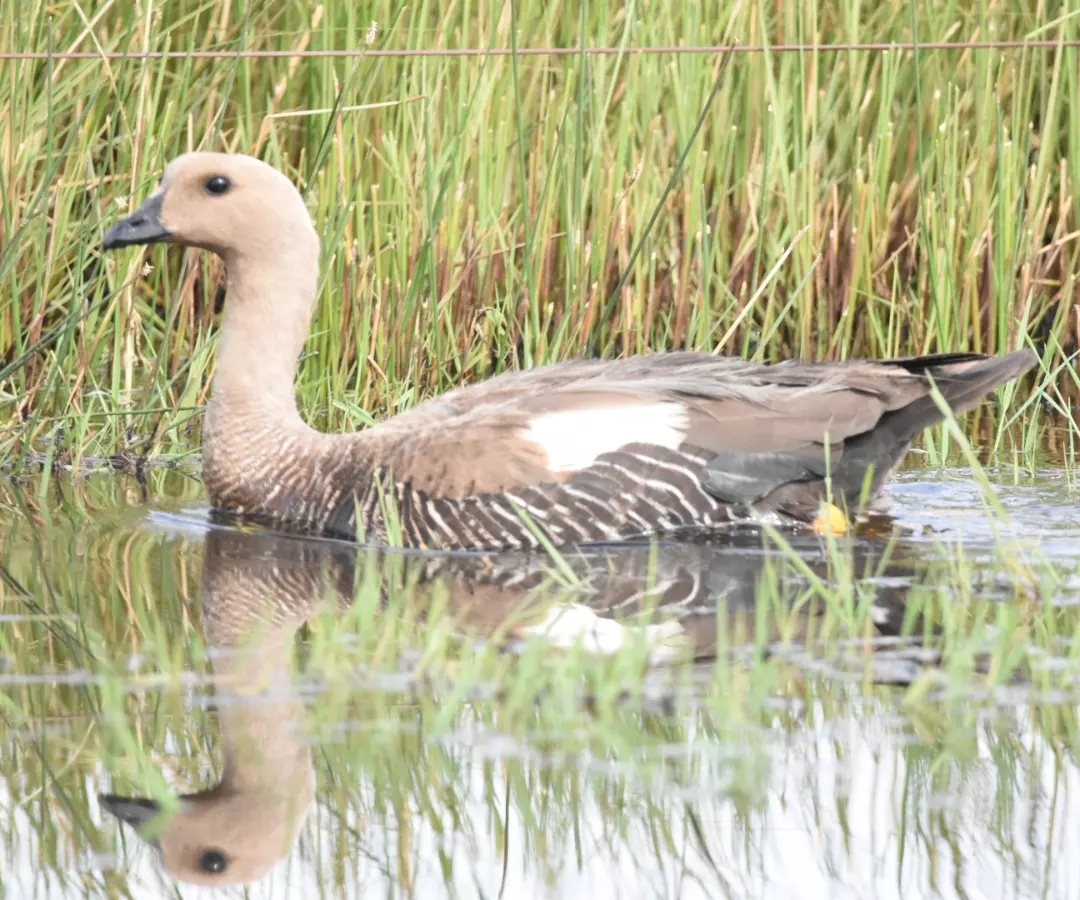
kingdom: Animalia
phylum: Chordata
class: Aves
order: Anseriformes
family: Anatidae
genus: Chloephaga
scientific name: Chloephaga picta
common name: Upland goose
